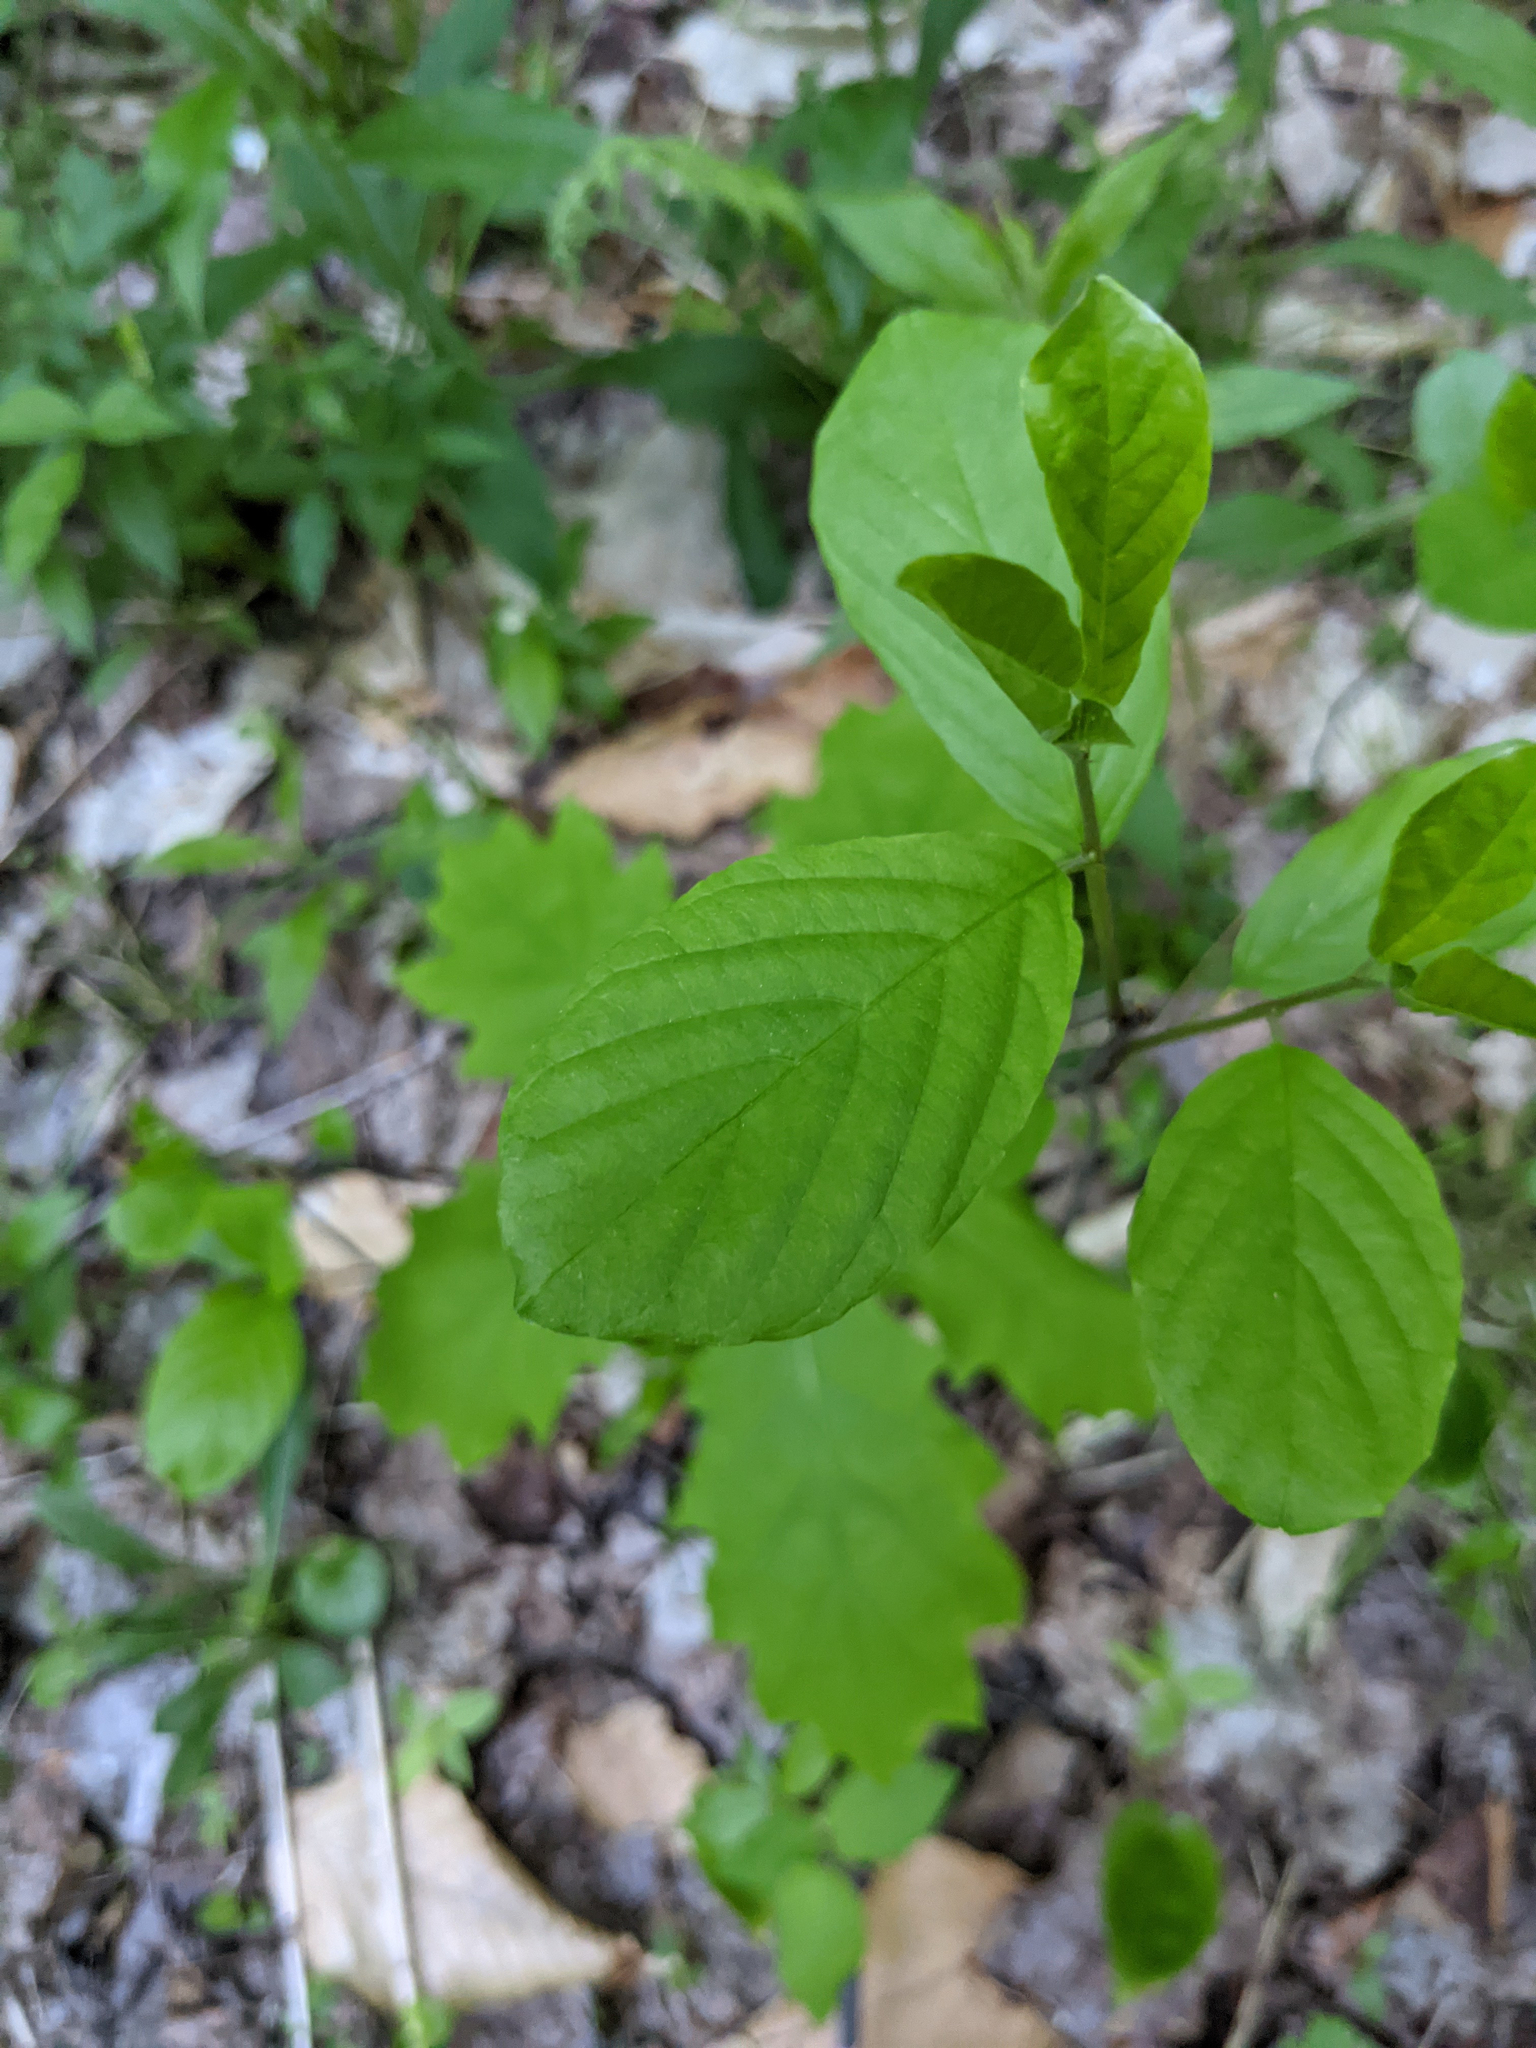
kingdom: Plantae
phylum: Tracheophyta
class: Magnoliopsida
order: Rosales
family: Rhamnaceae
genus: Frangula
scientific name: Frangula alnus
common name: Alder buckthorn
